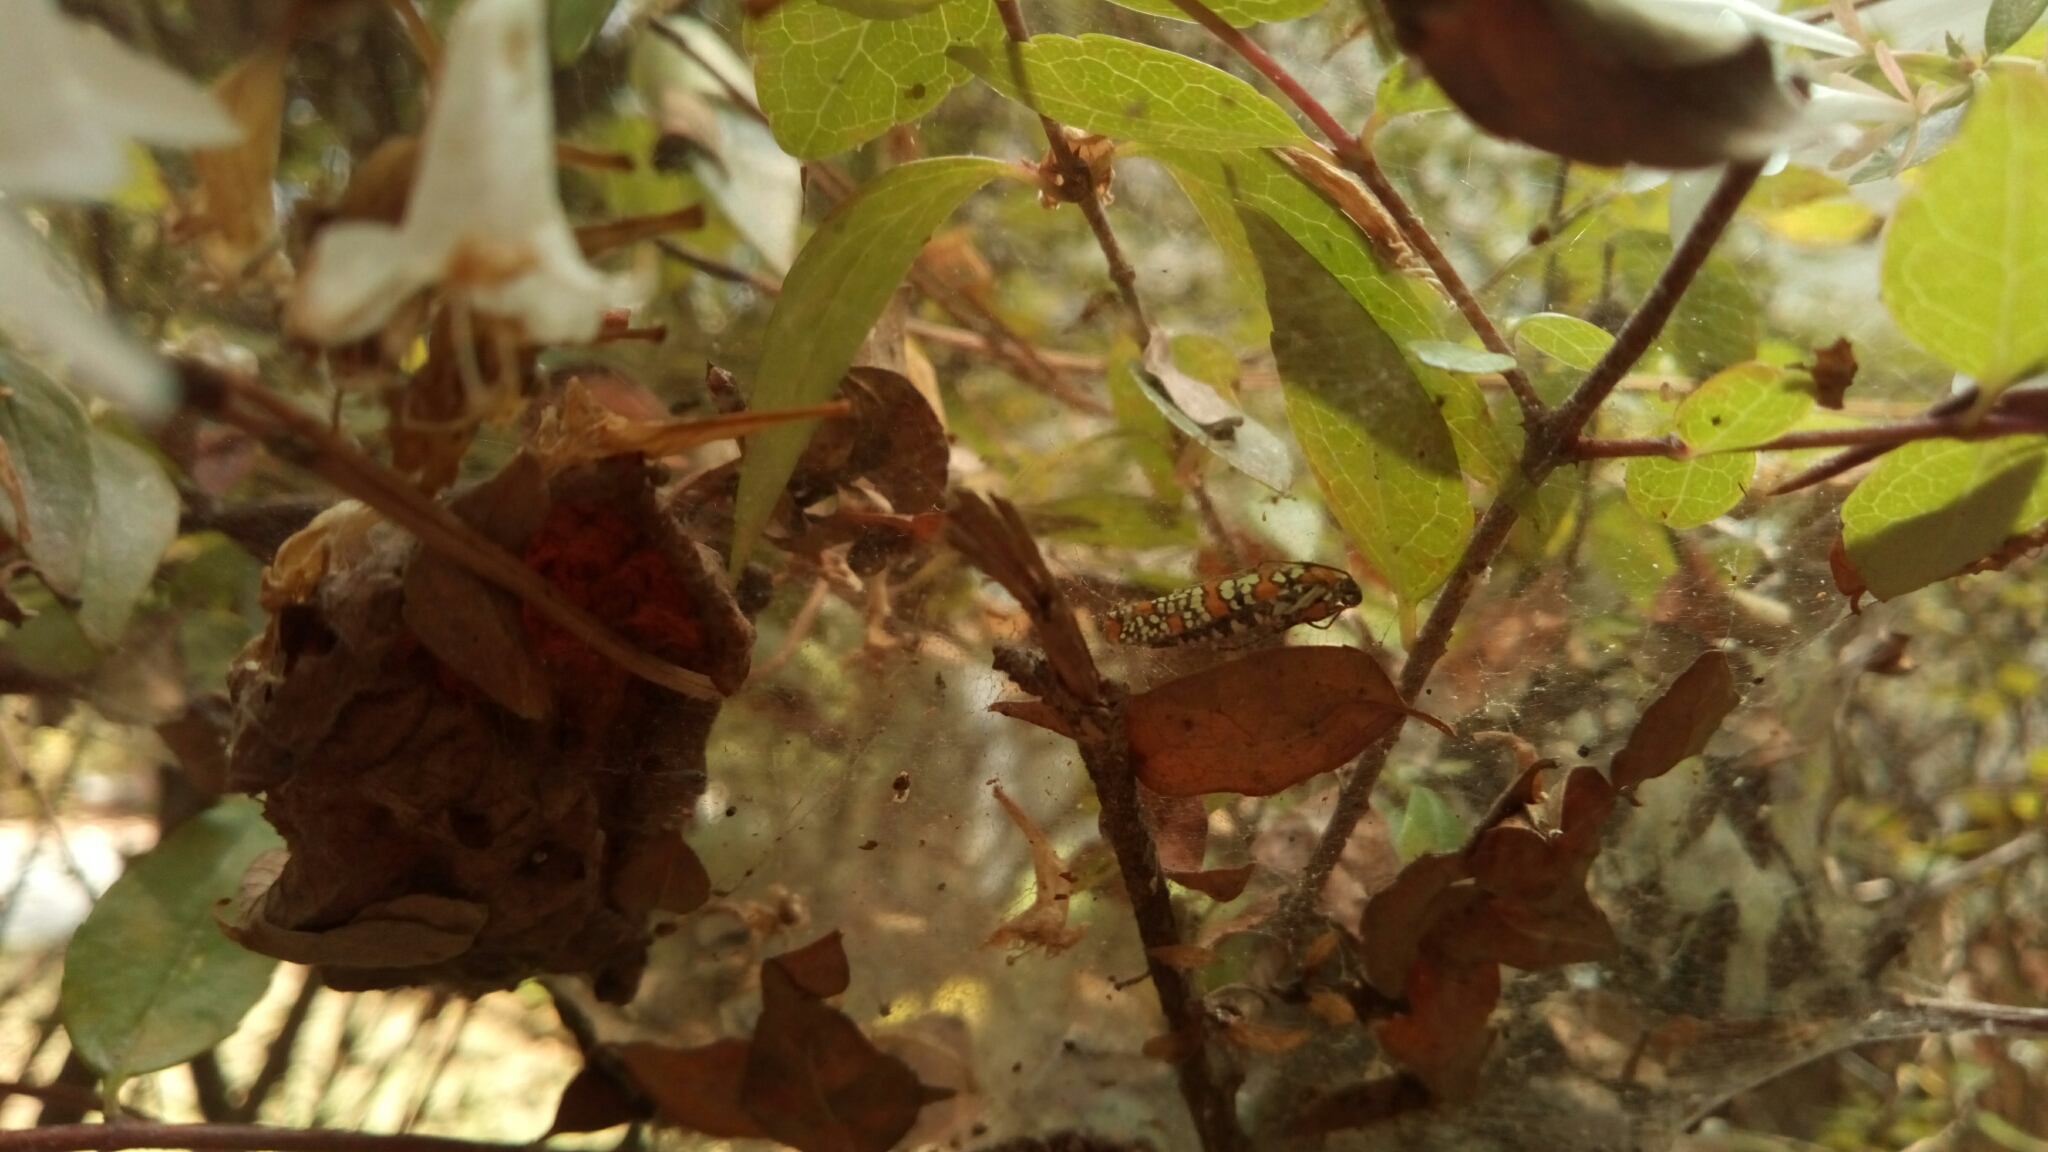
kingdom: Animalia
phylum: Arthropoda
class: Insecta
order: Lepidoptera
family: Attevidae
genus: Atteva
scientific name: Atteva punctella
